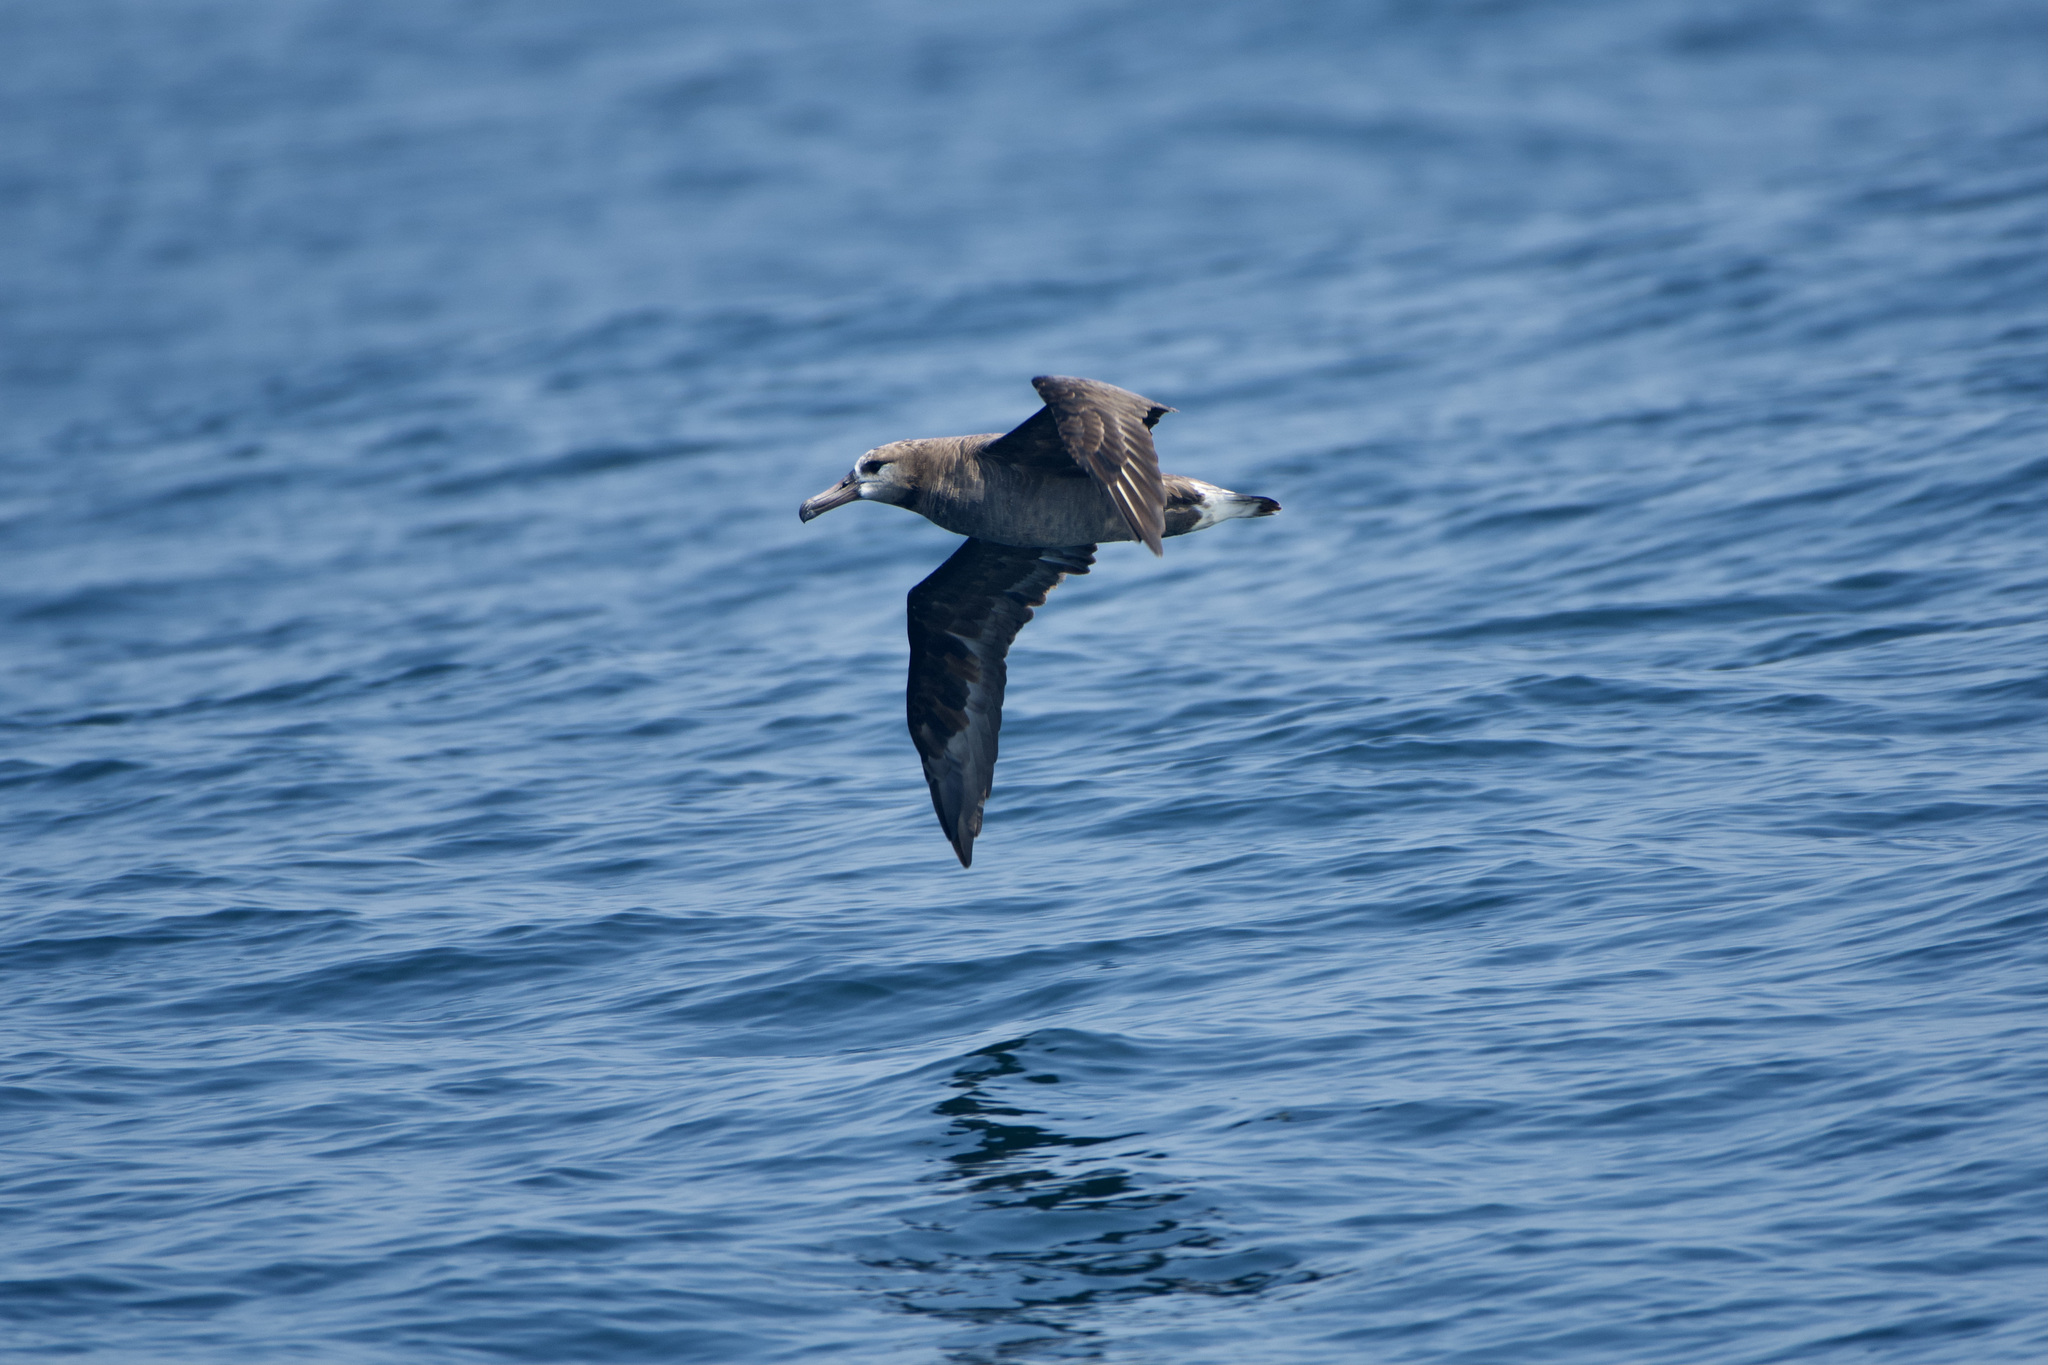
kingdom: Animalia
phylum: Chordata
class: Aves
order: Procellariiformes
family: Diomedeidae
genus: Phoebastria
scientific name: Phoebastria nigripes
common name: Black-footed albatross
